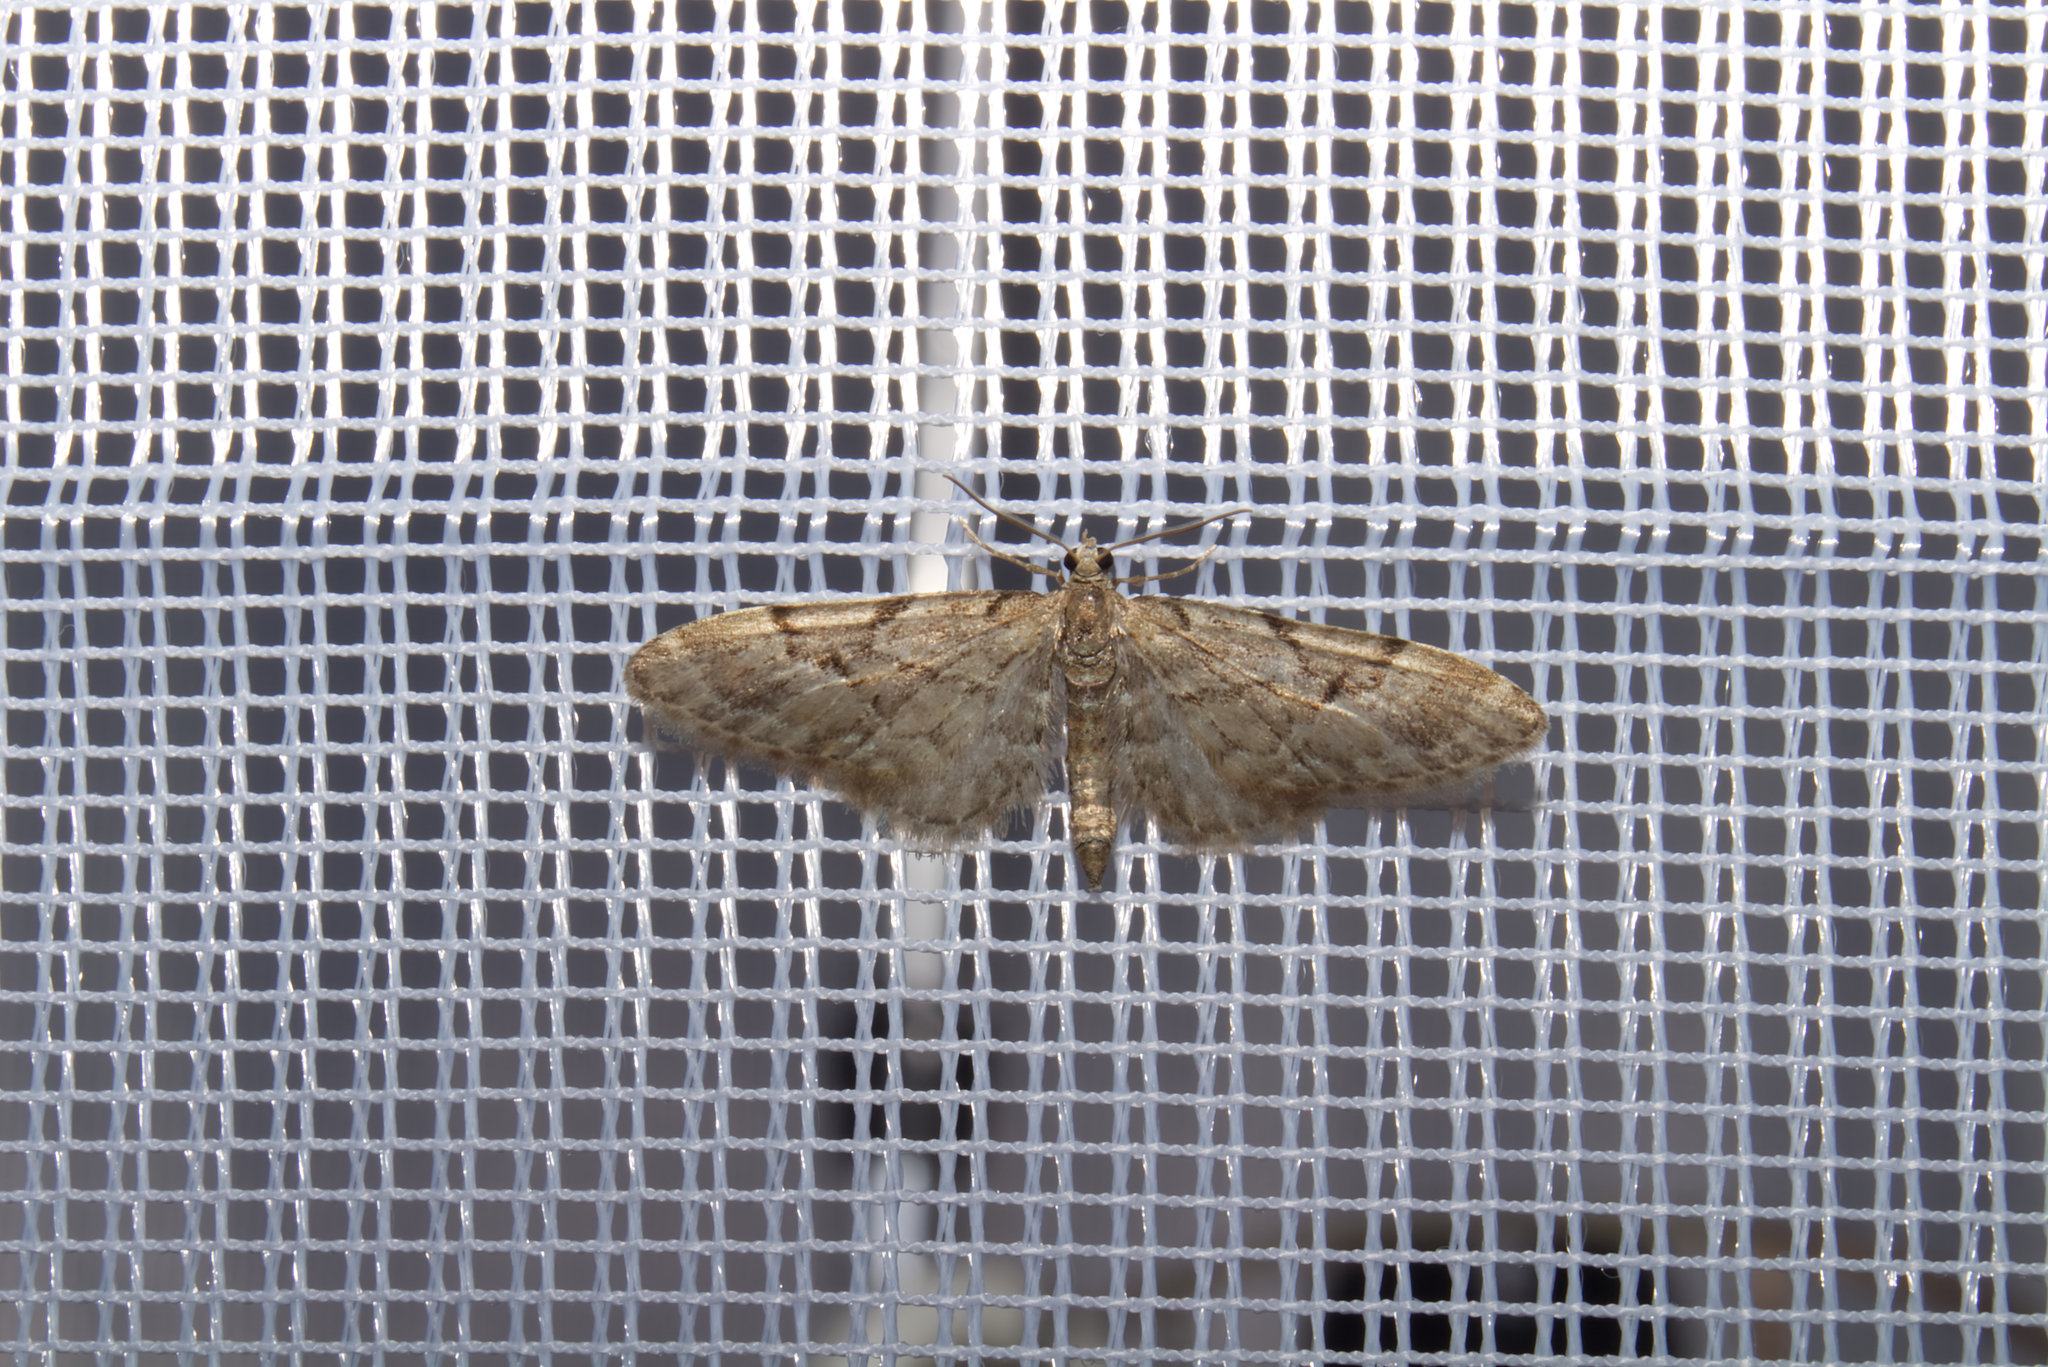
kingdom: Animalia
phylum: Arthropoda
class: Insecta
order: Lepidoptera
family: Geometridae
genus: Eupithecia
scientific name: Eupithecia lanceata
